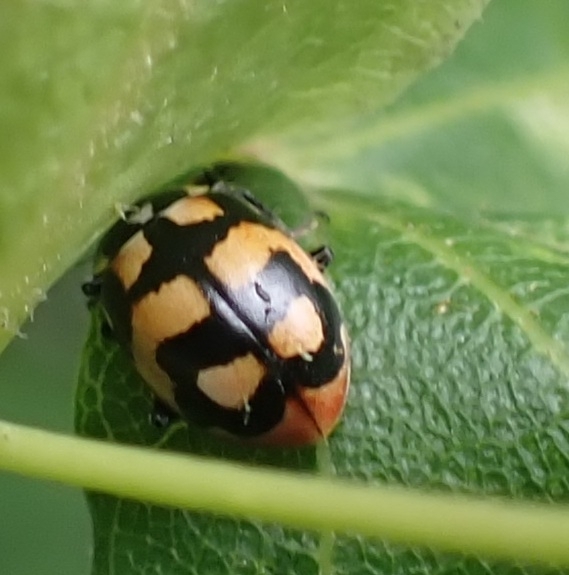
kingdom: Animalia
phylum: Arthropoda
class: Insecta
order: Coleoptera
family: Coccinellidae
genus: Hippodamia
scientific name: Hippodamia arctica
